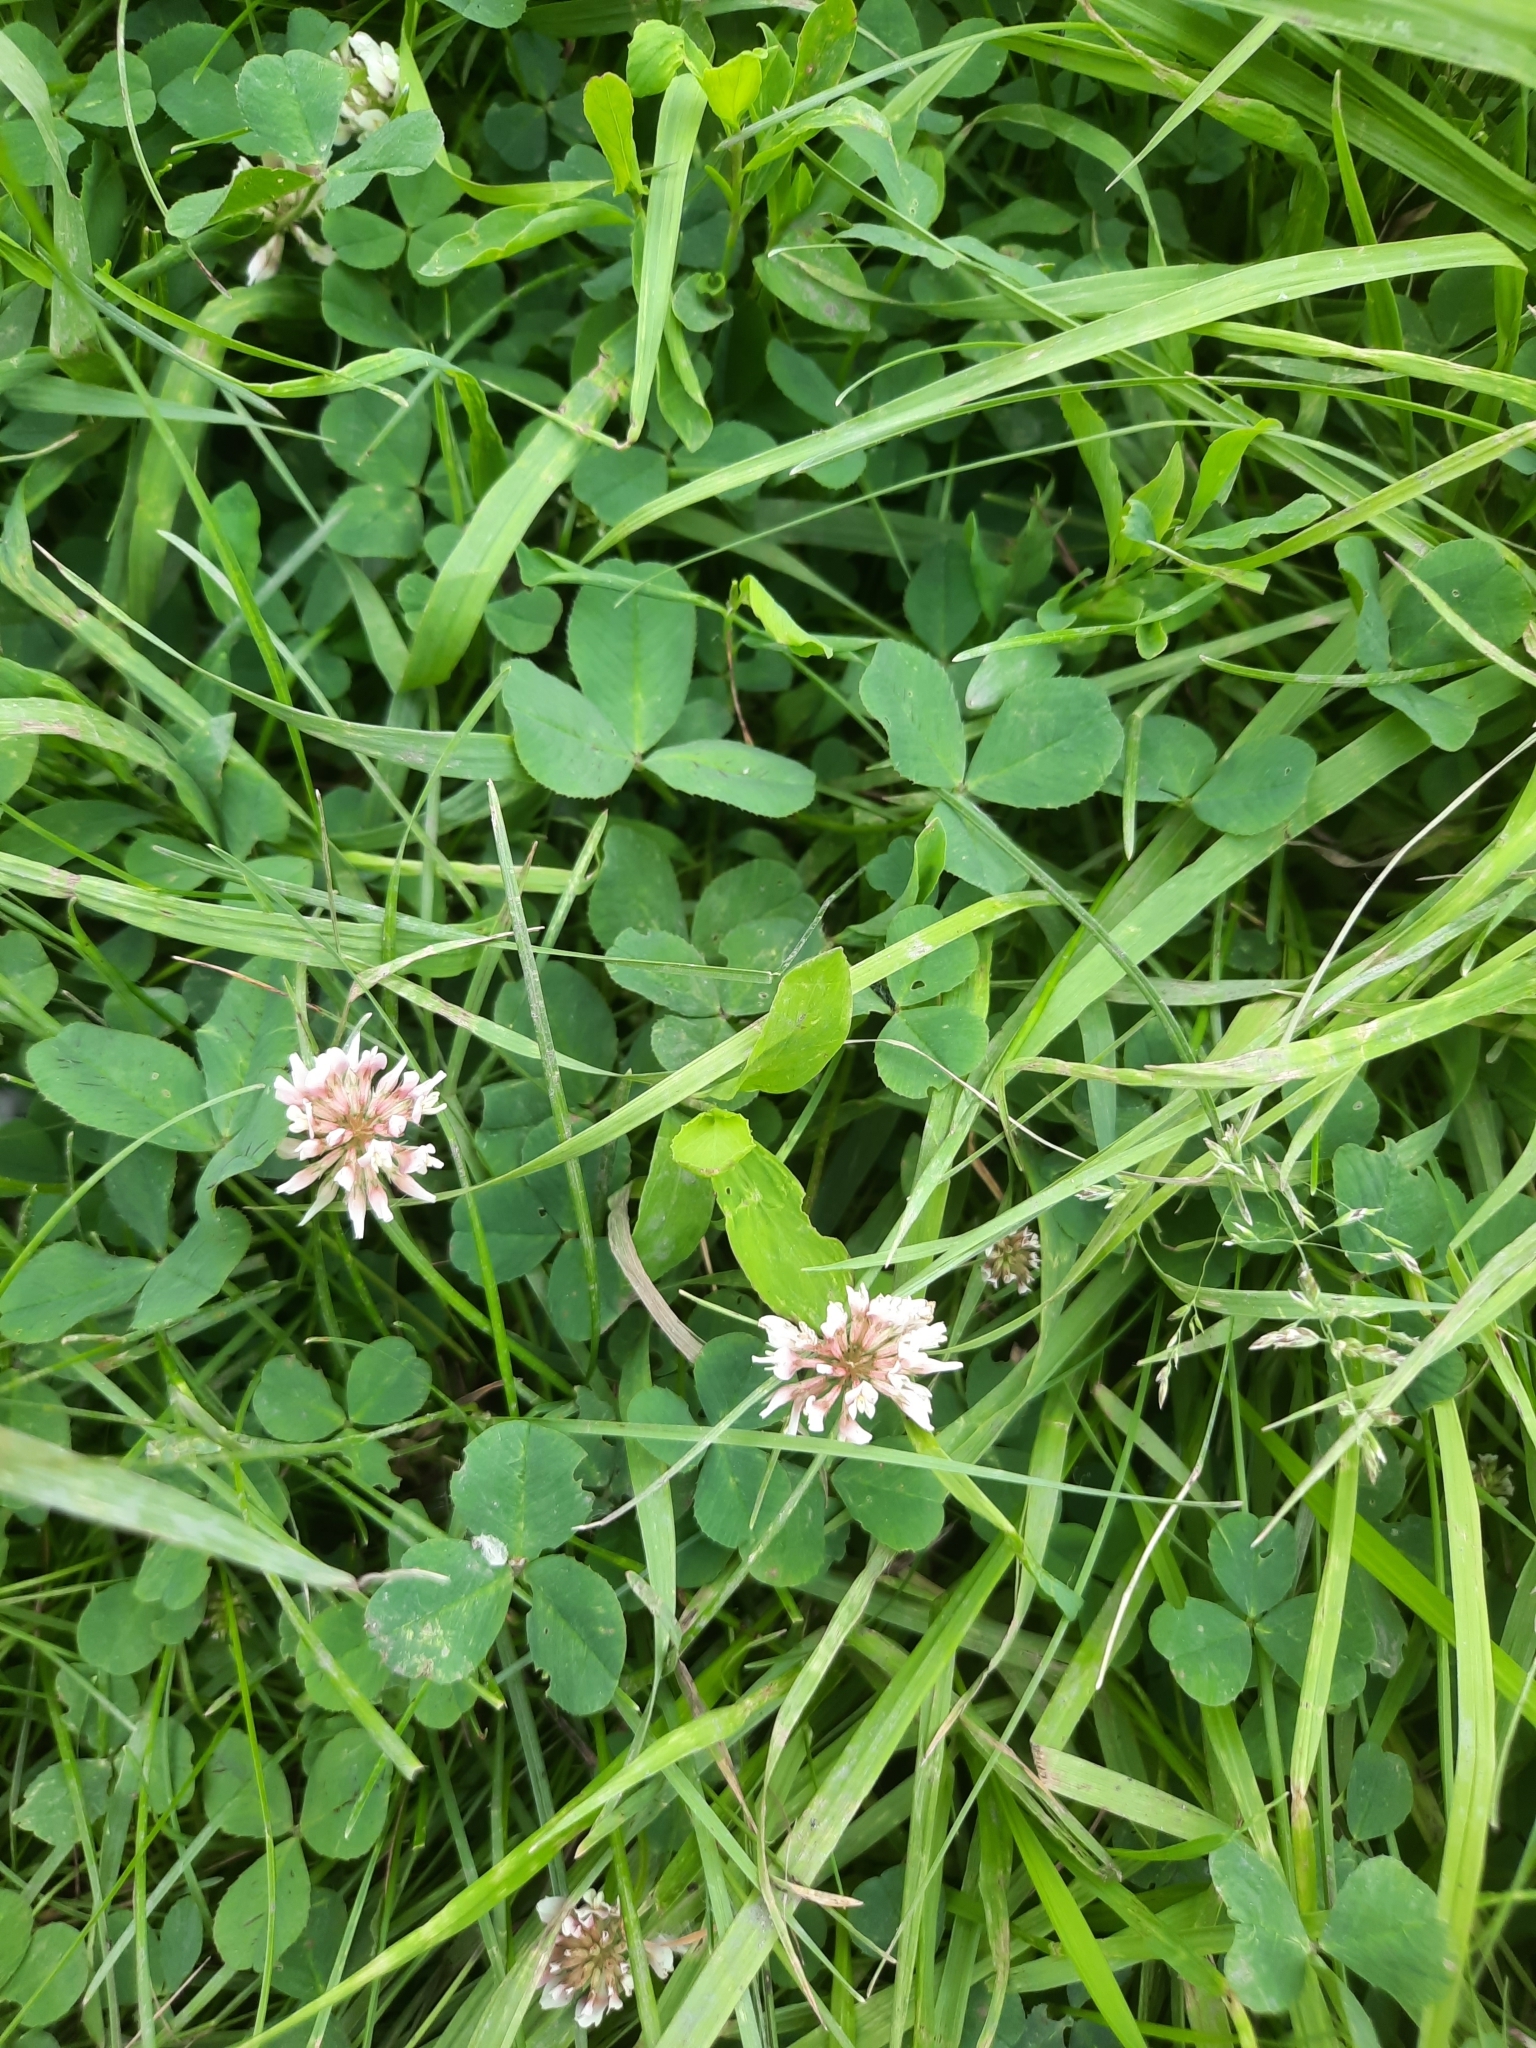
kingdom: Plantae
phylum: Tracheophyta
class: Magnoliopsida
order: Fabales
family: Fabaceae
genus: Trifolium
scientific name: Trifolium repens
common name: White clover
